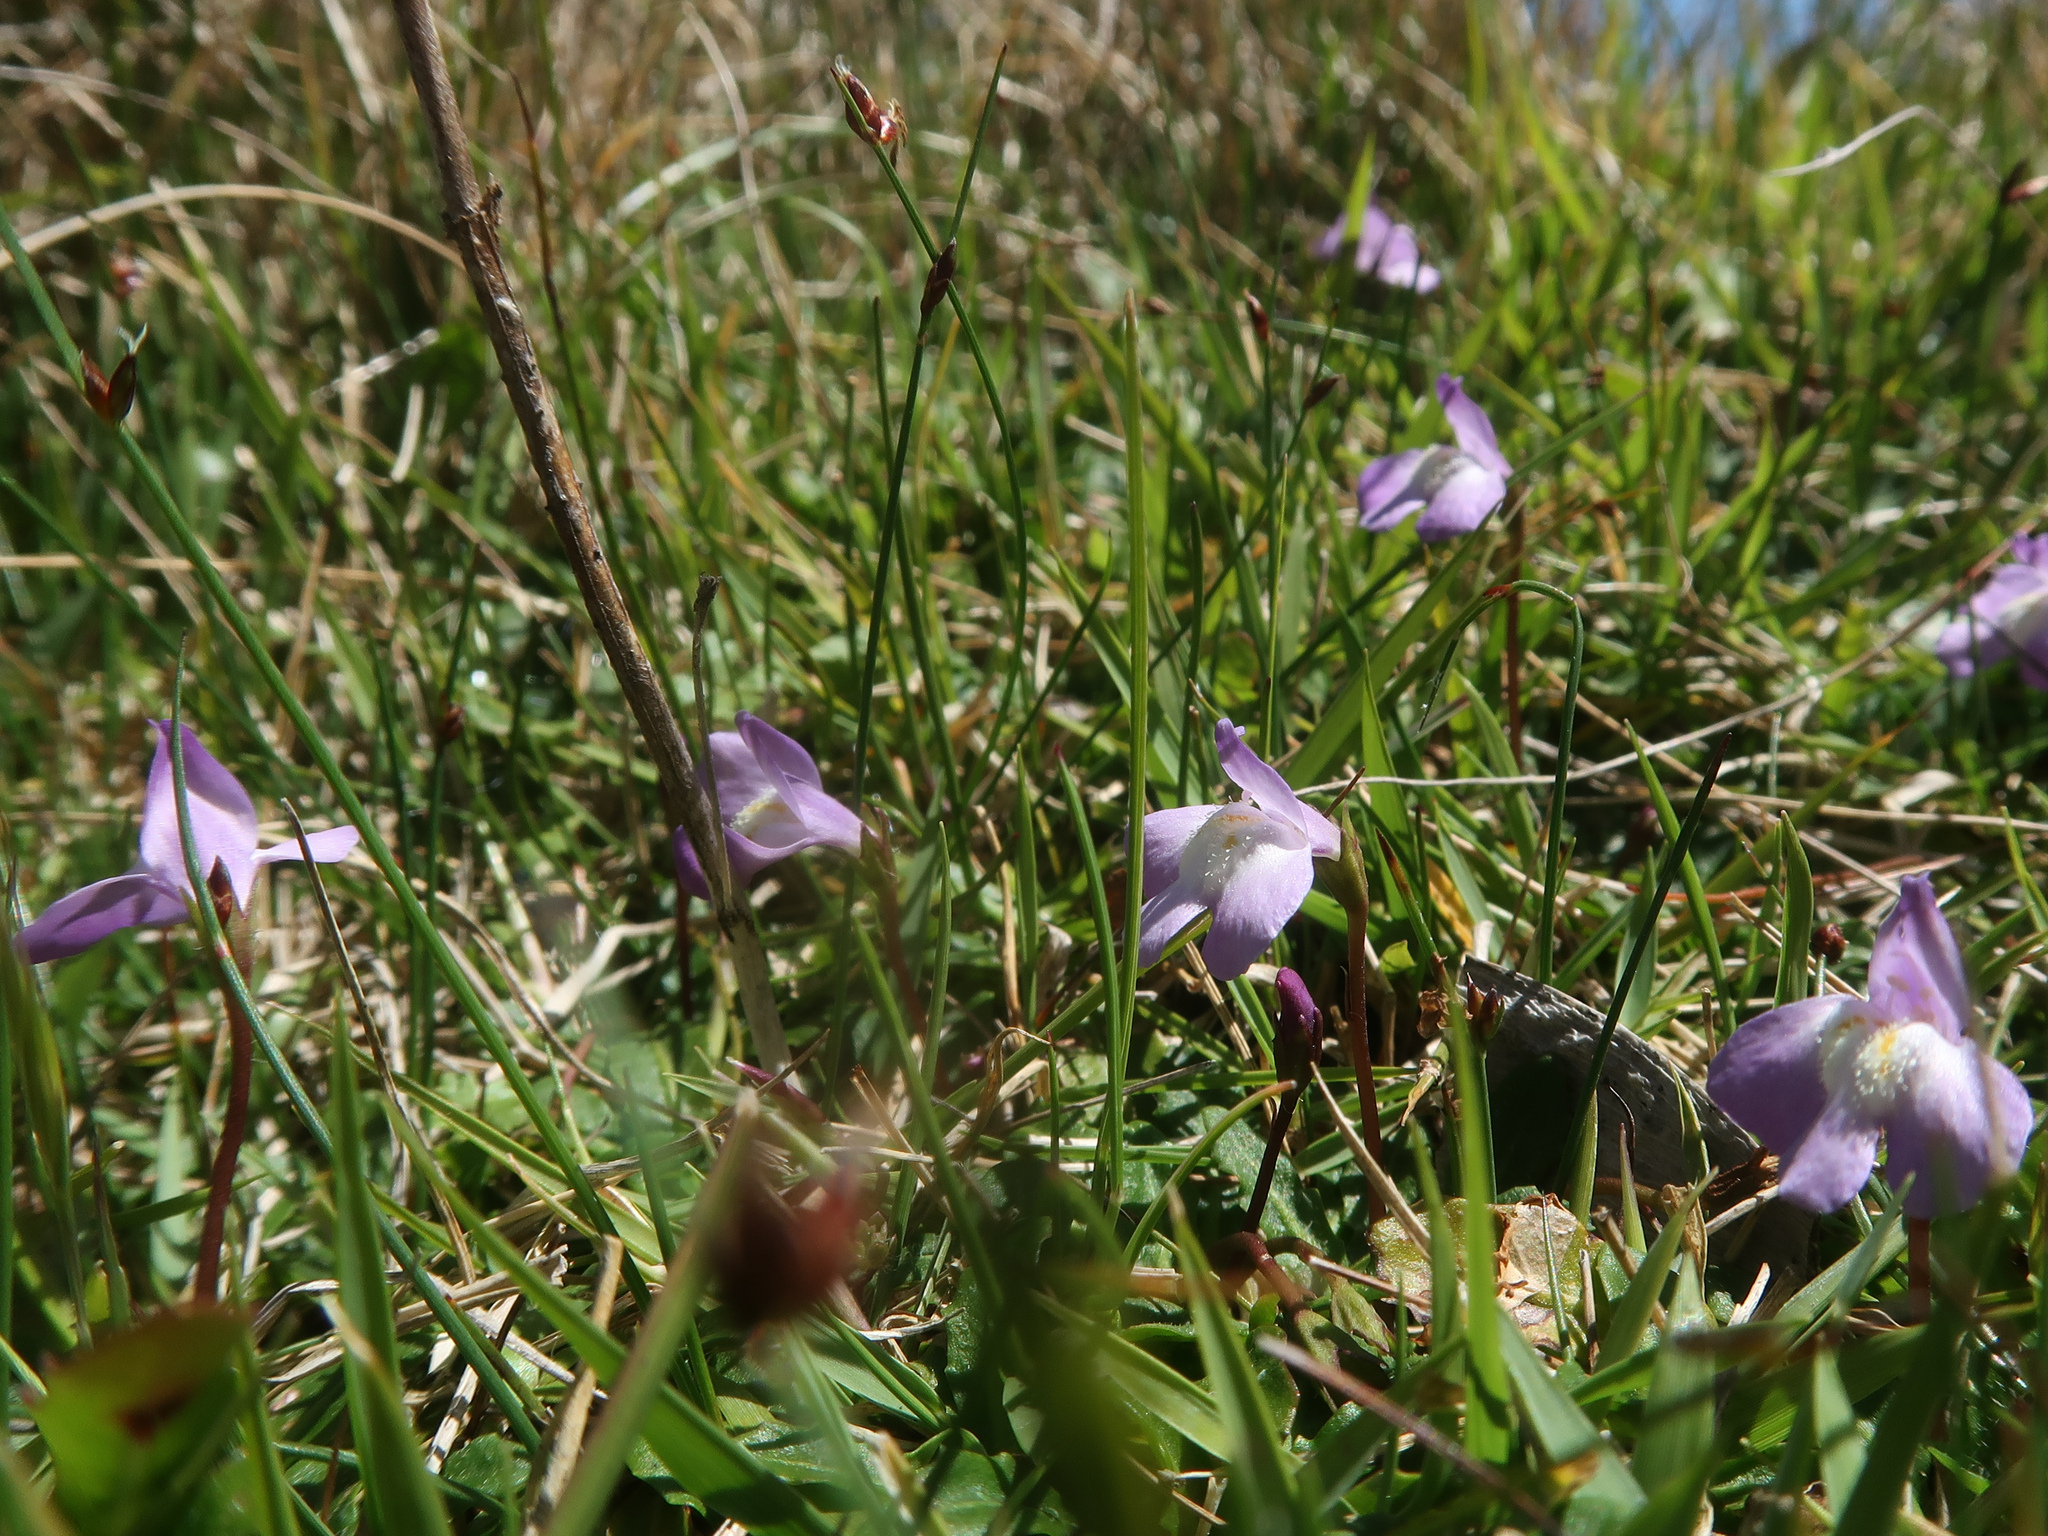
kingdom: Plantae
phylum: Tracheophyta
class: Magnoliopsida
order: Lamiales
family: Mazaceae
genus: Mazus
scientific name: Mazus pumilio
